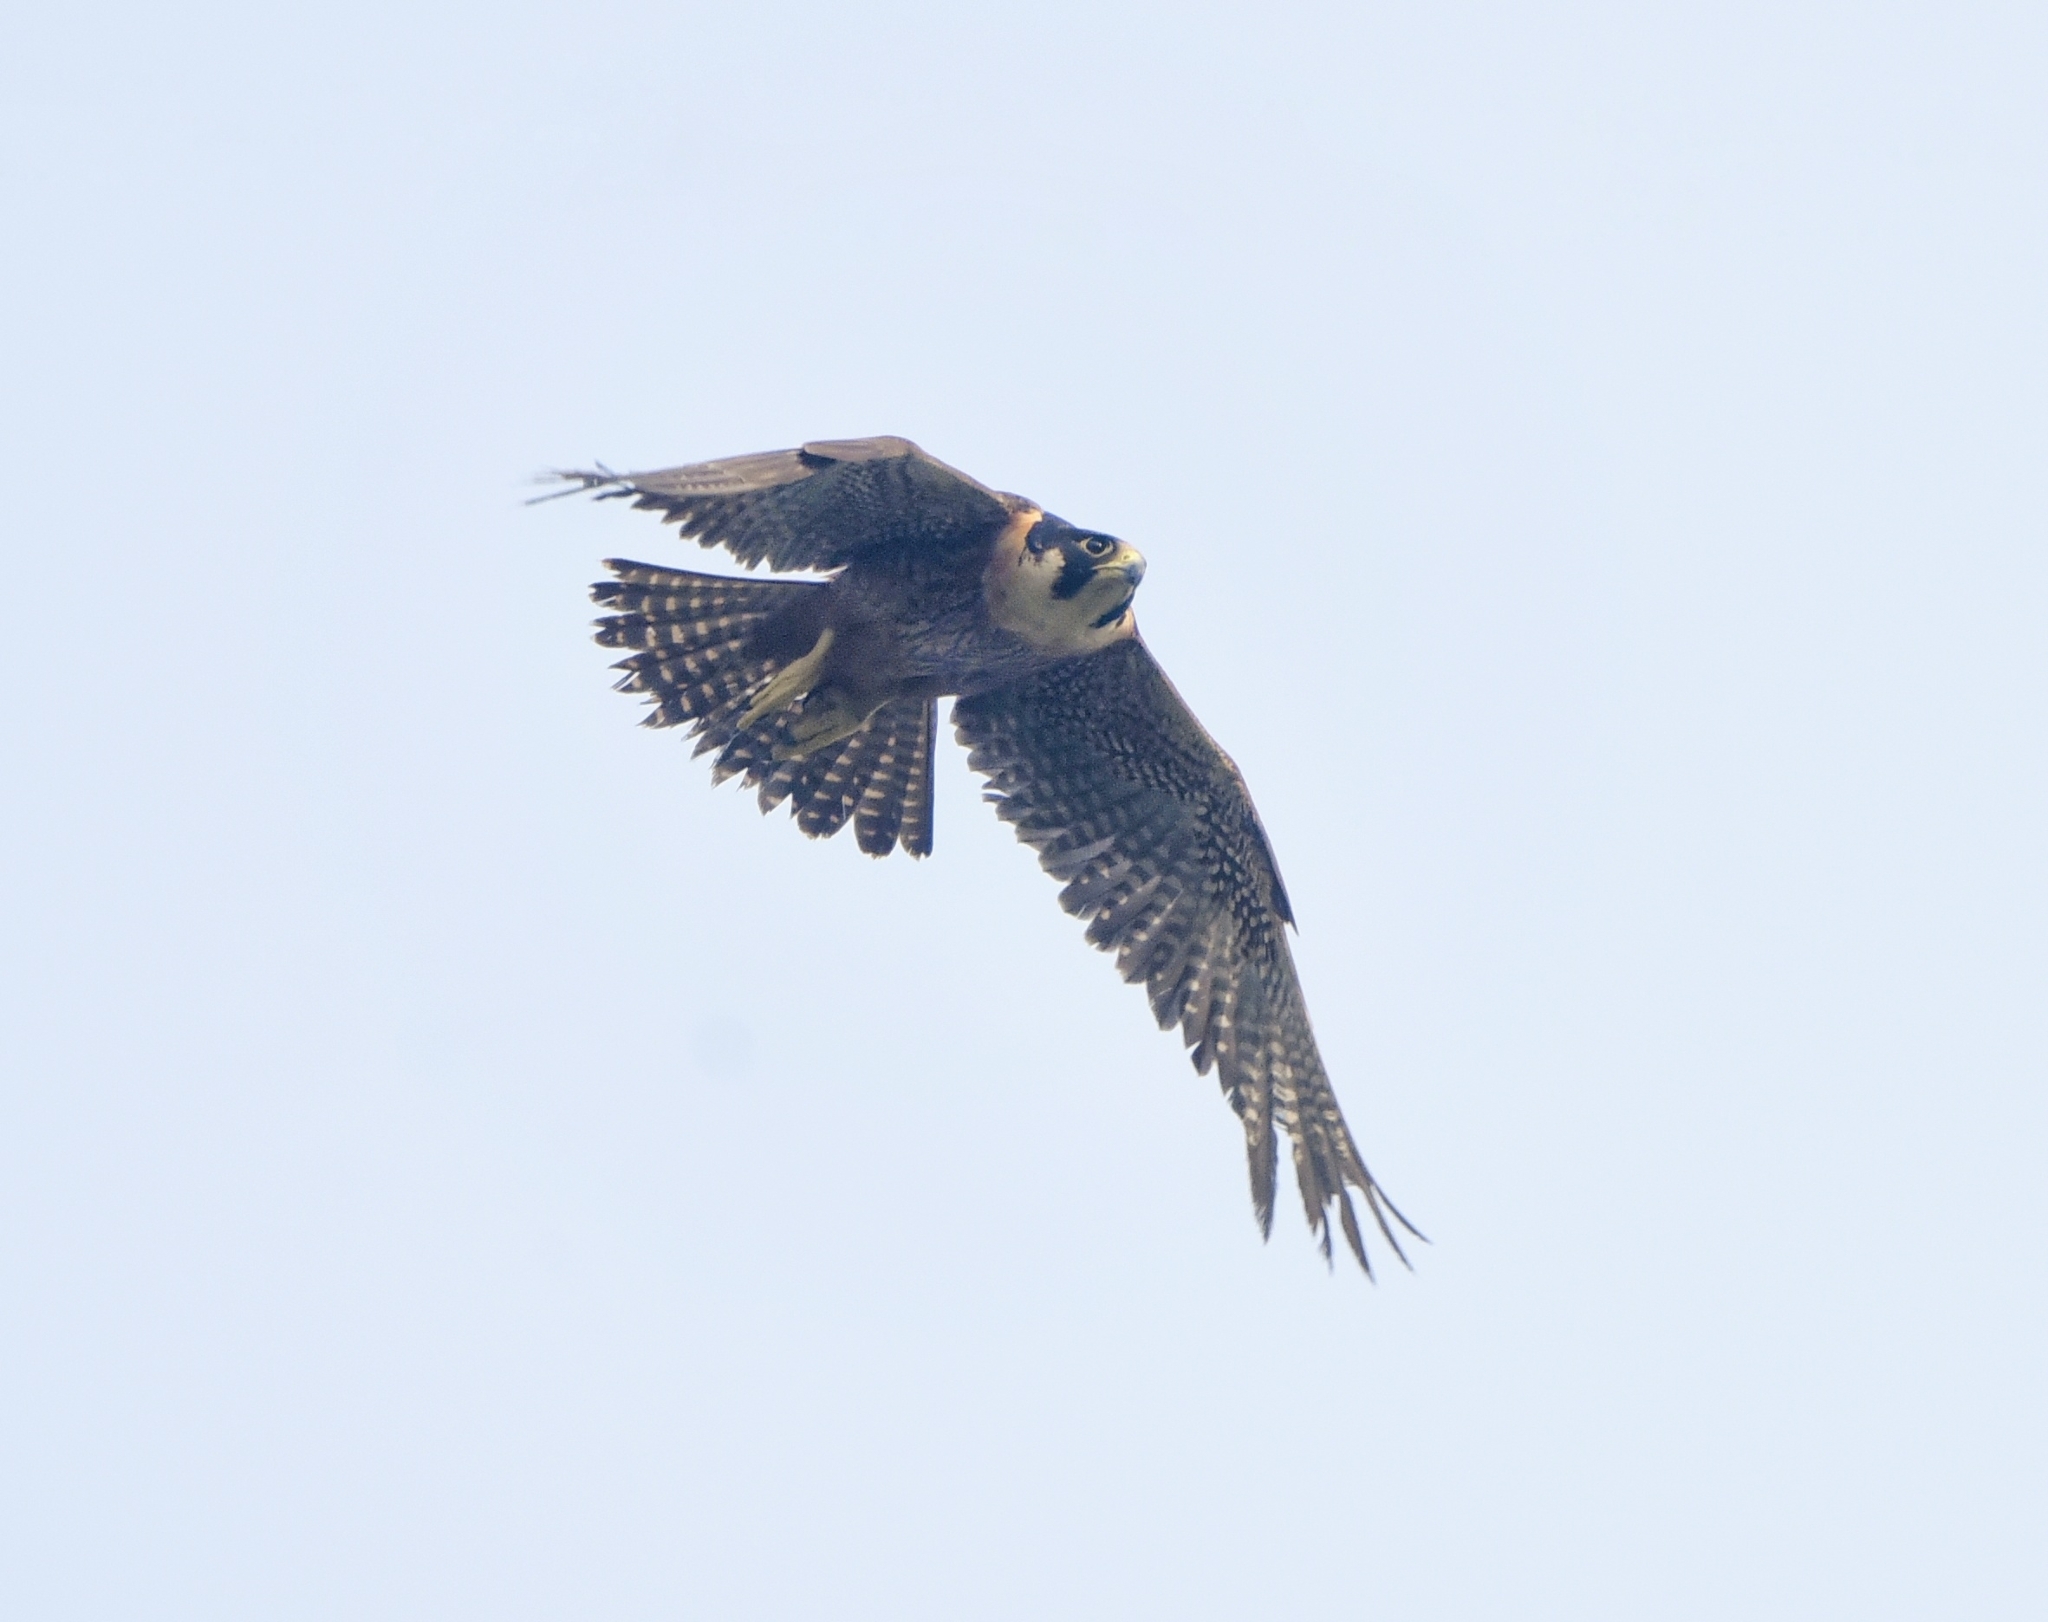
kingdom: Animalia
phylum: Chordata
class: Aves
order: Falconiformes
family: Falconidae
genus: Falco
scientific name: Falco peregrinus
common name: Peregrine falcon
